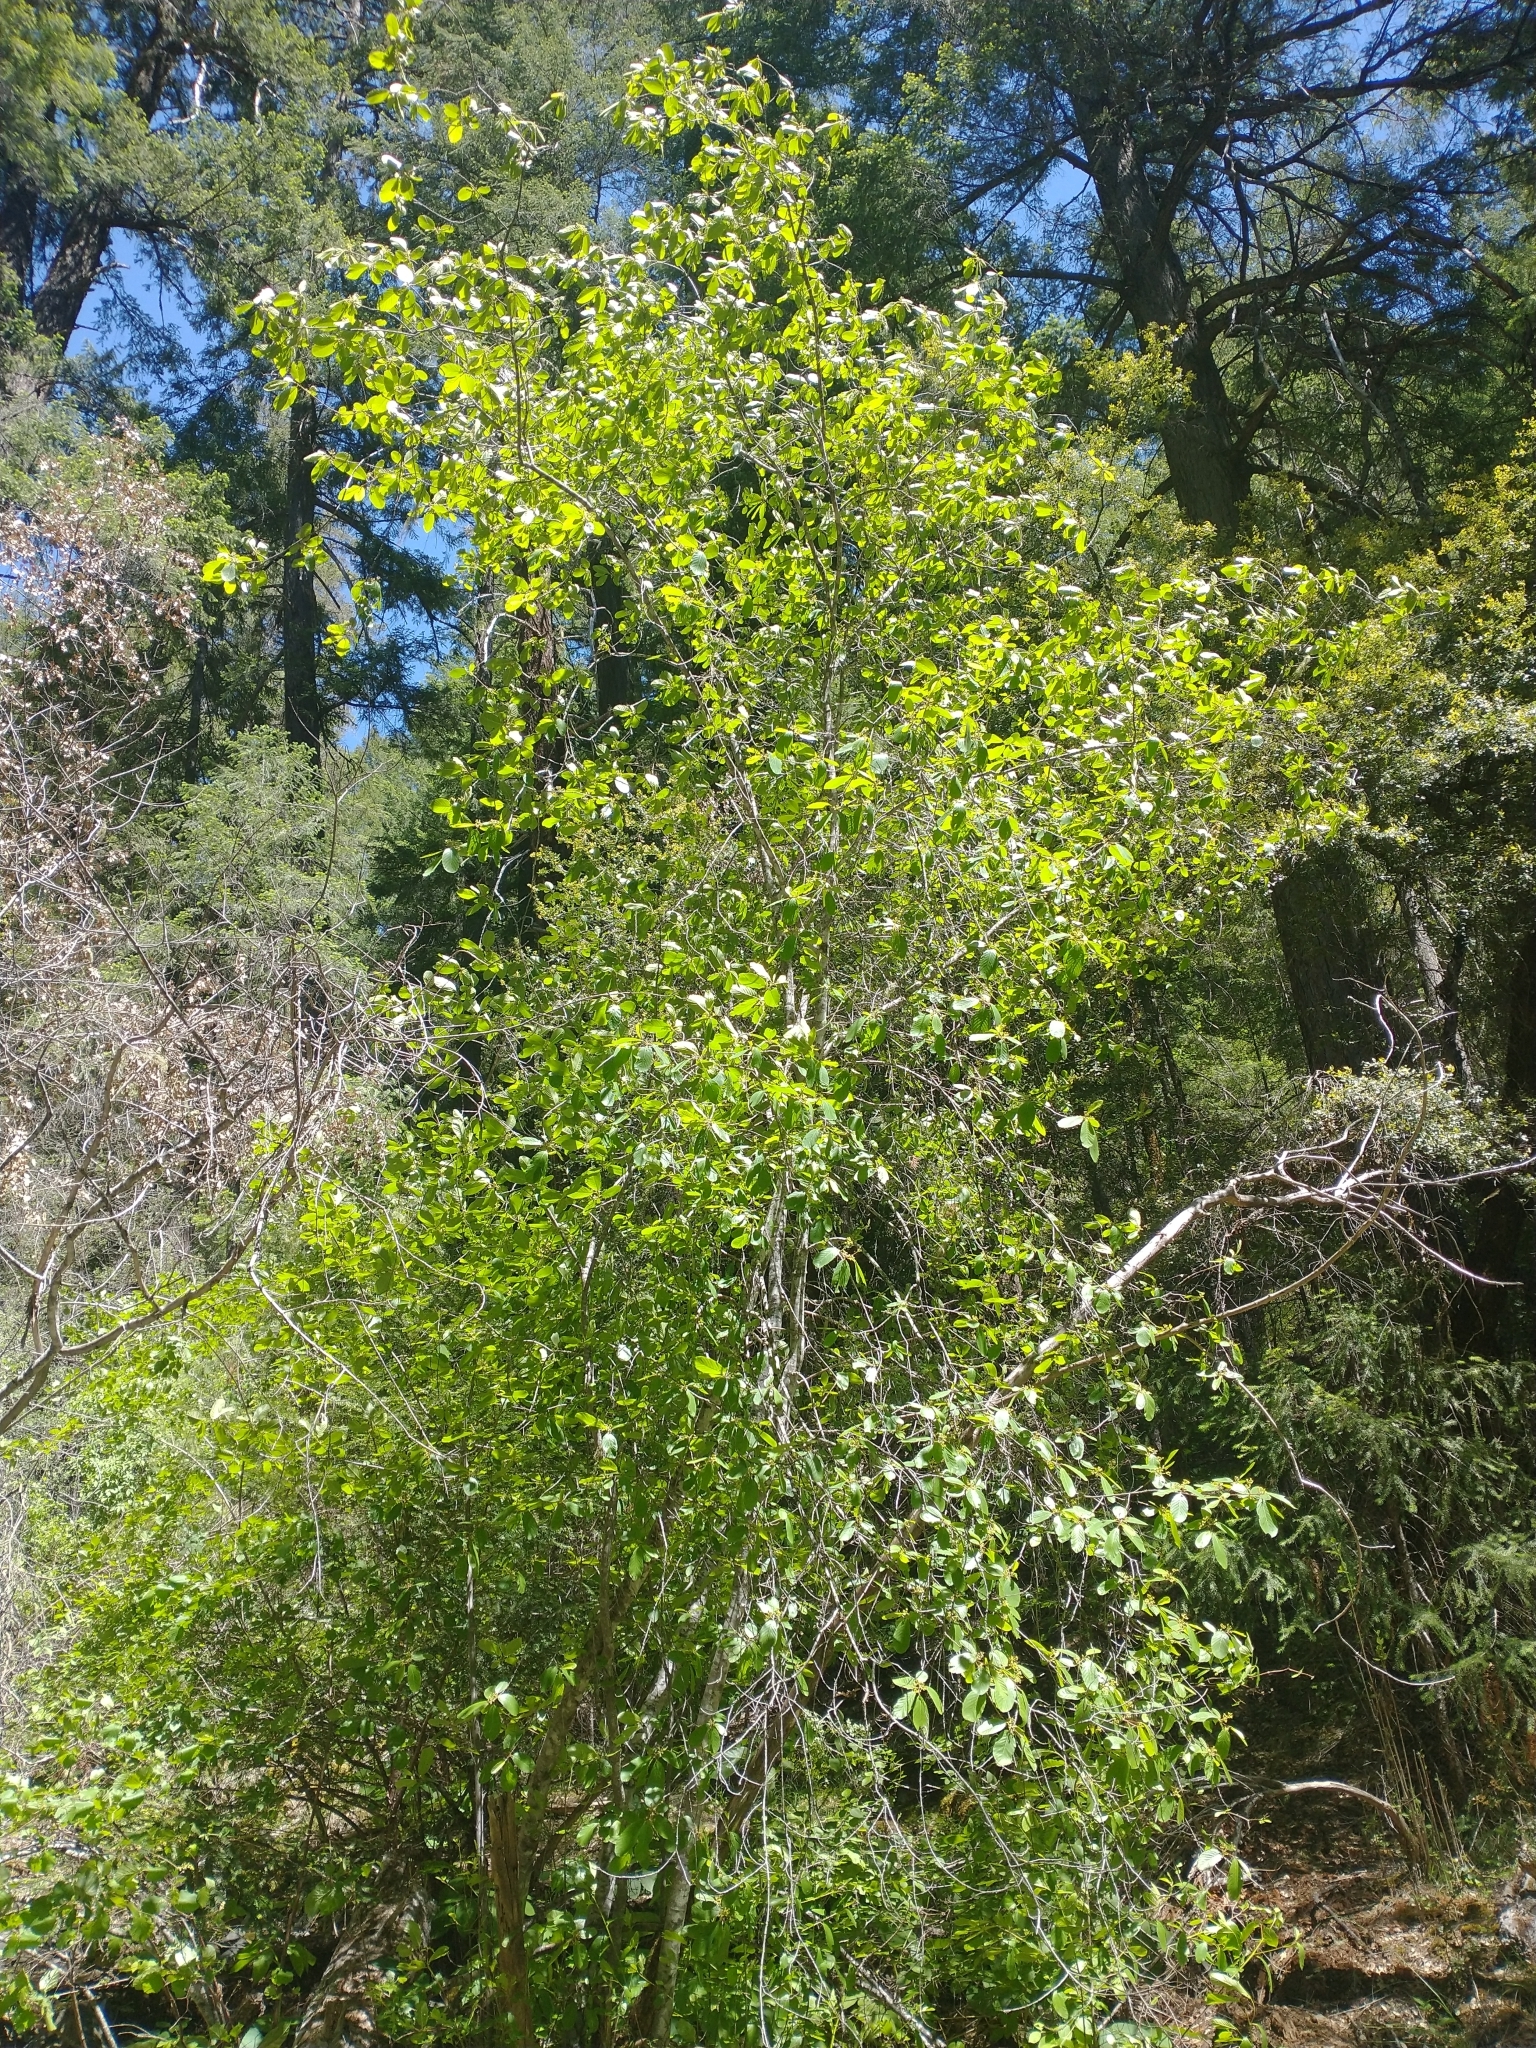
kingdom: Plantae
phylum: Tracheophyta
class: Magnoliopsida
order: Rosales
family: Rhamnaceae
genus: Frangula
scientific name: Frangula purshiana
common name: Cascara buckthorn
